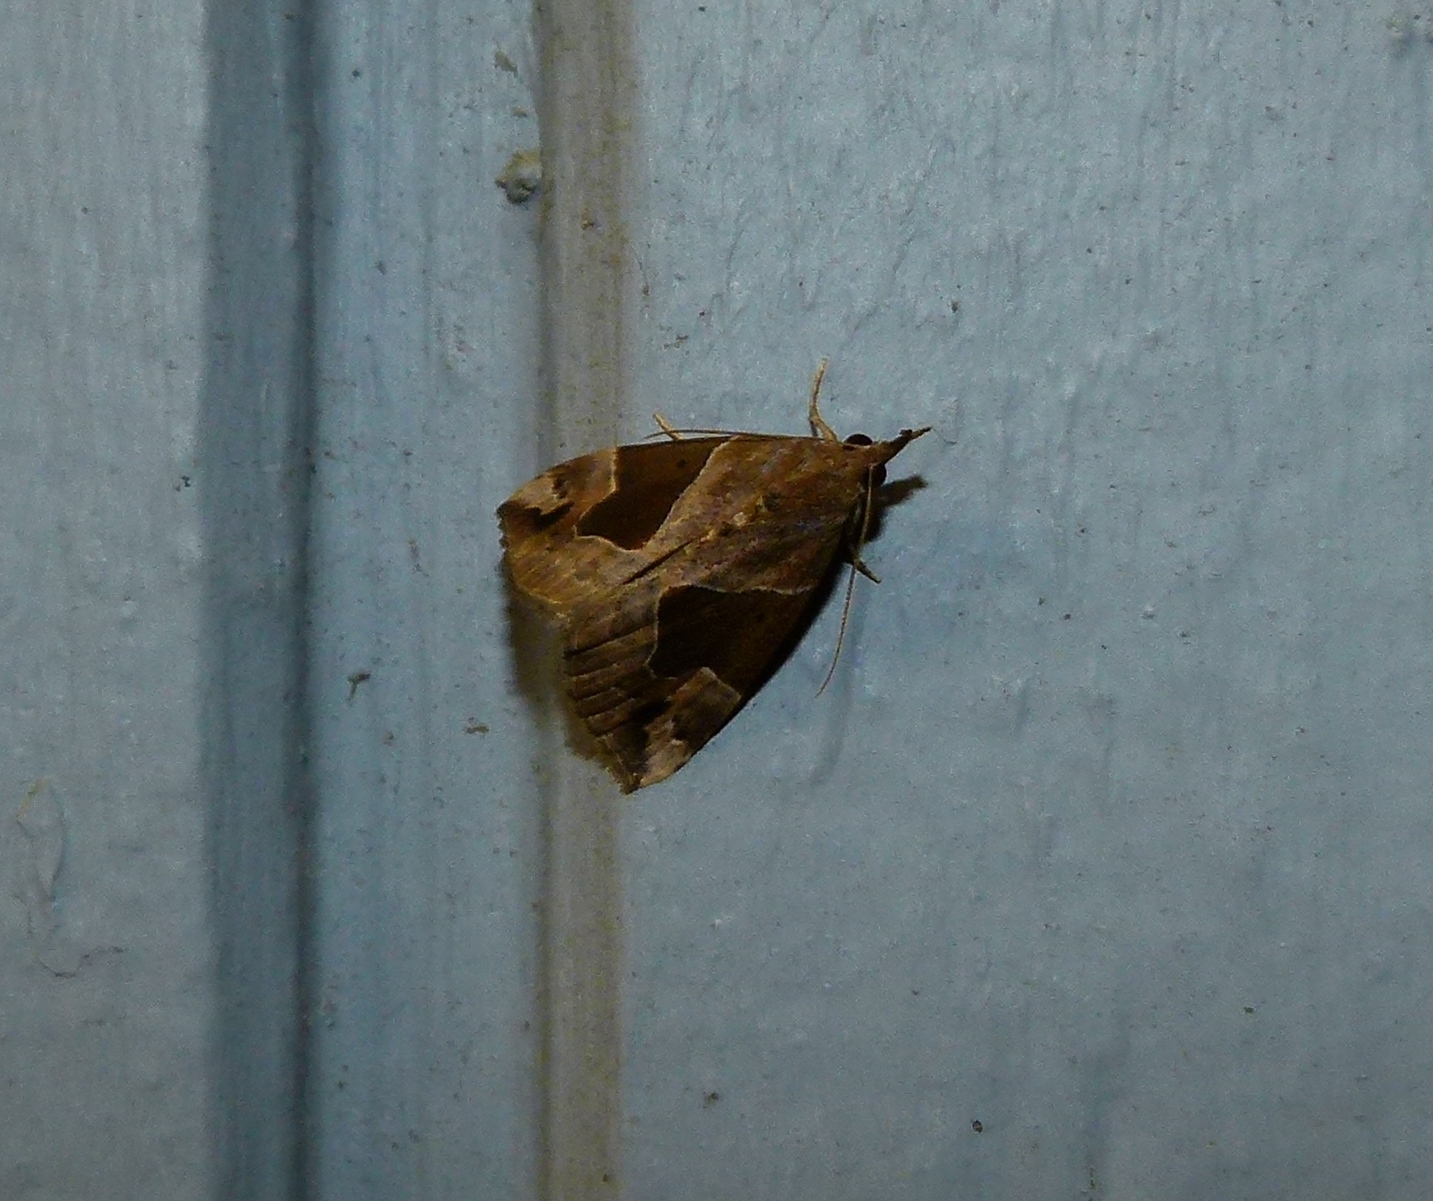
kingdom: Animalia
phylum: Arthropoda
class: Insecta
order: Lepidoptera
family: Erebidae
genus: Hypena
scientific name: Hypena manalis
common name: Flowing-line bomolocha moth
